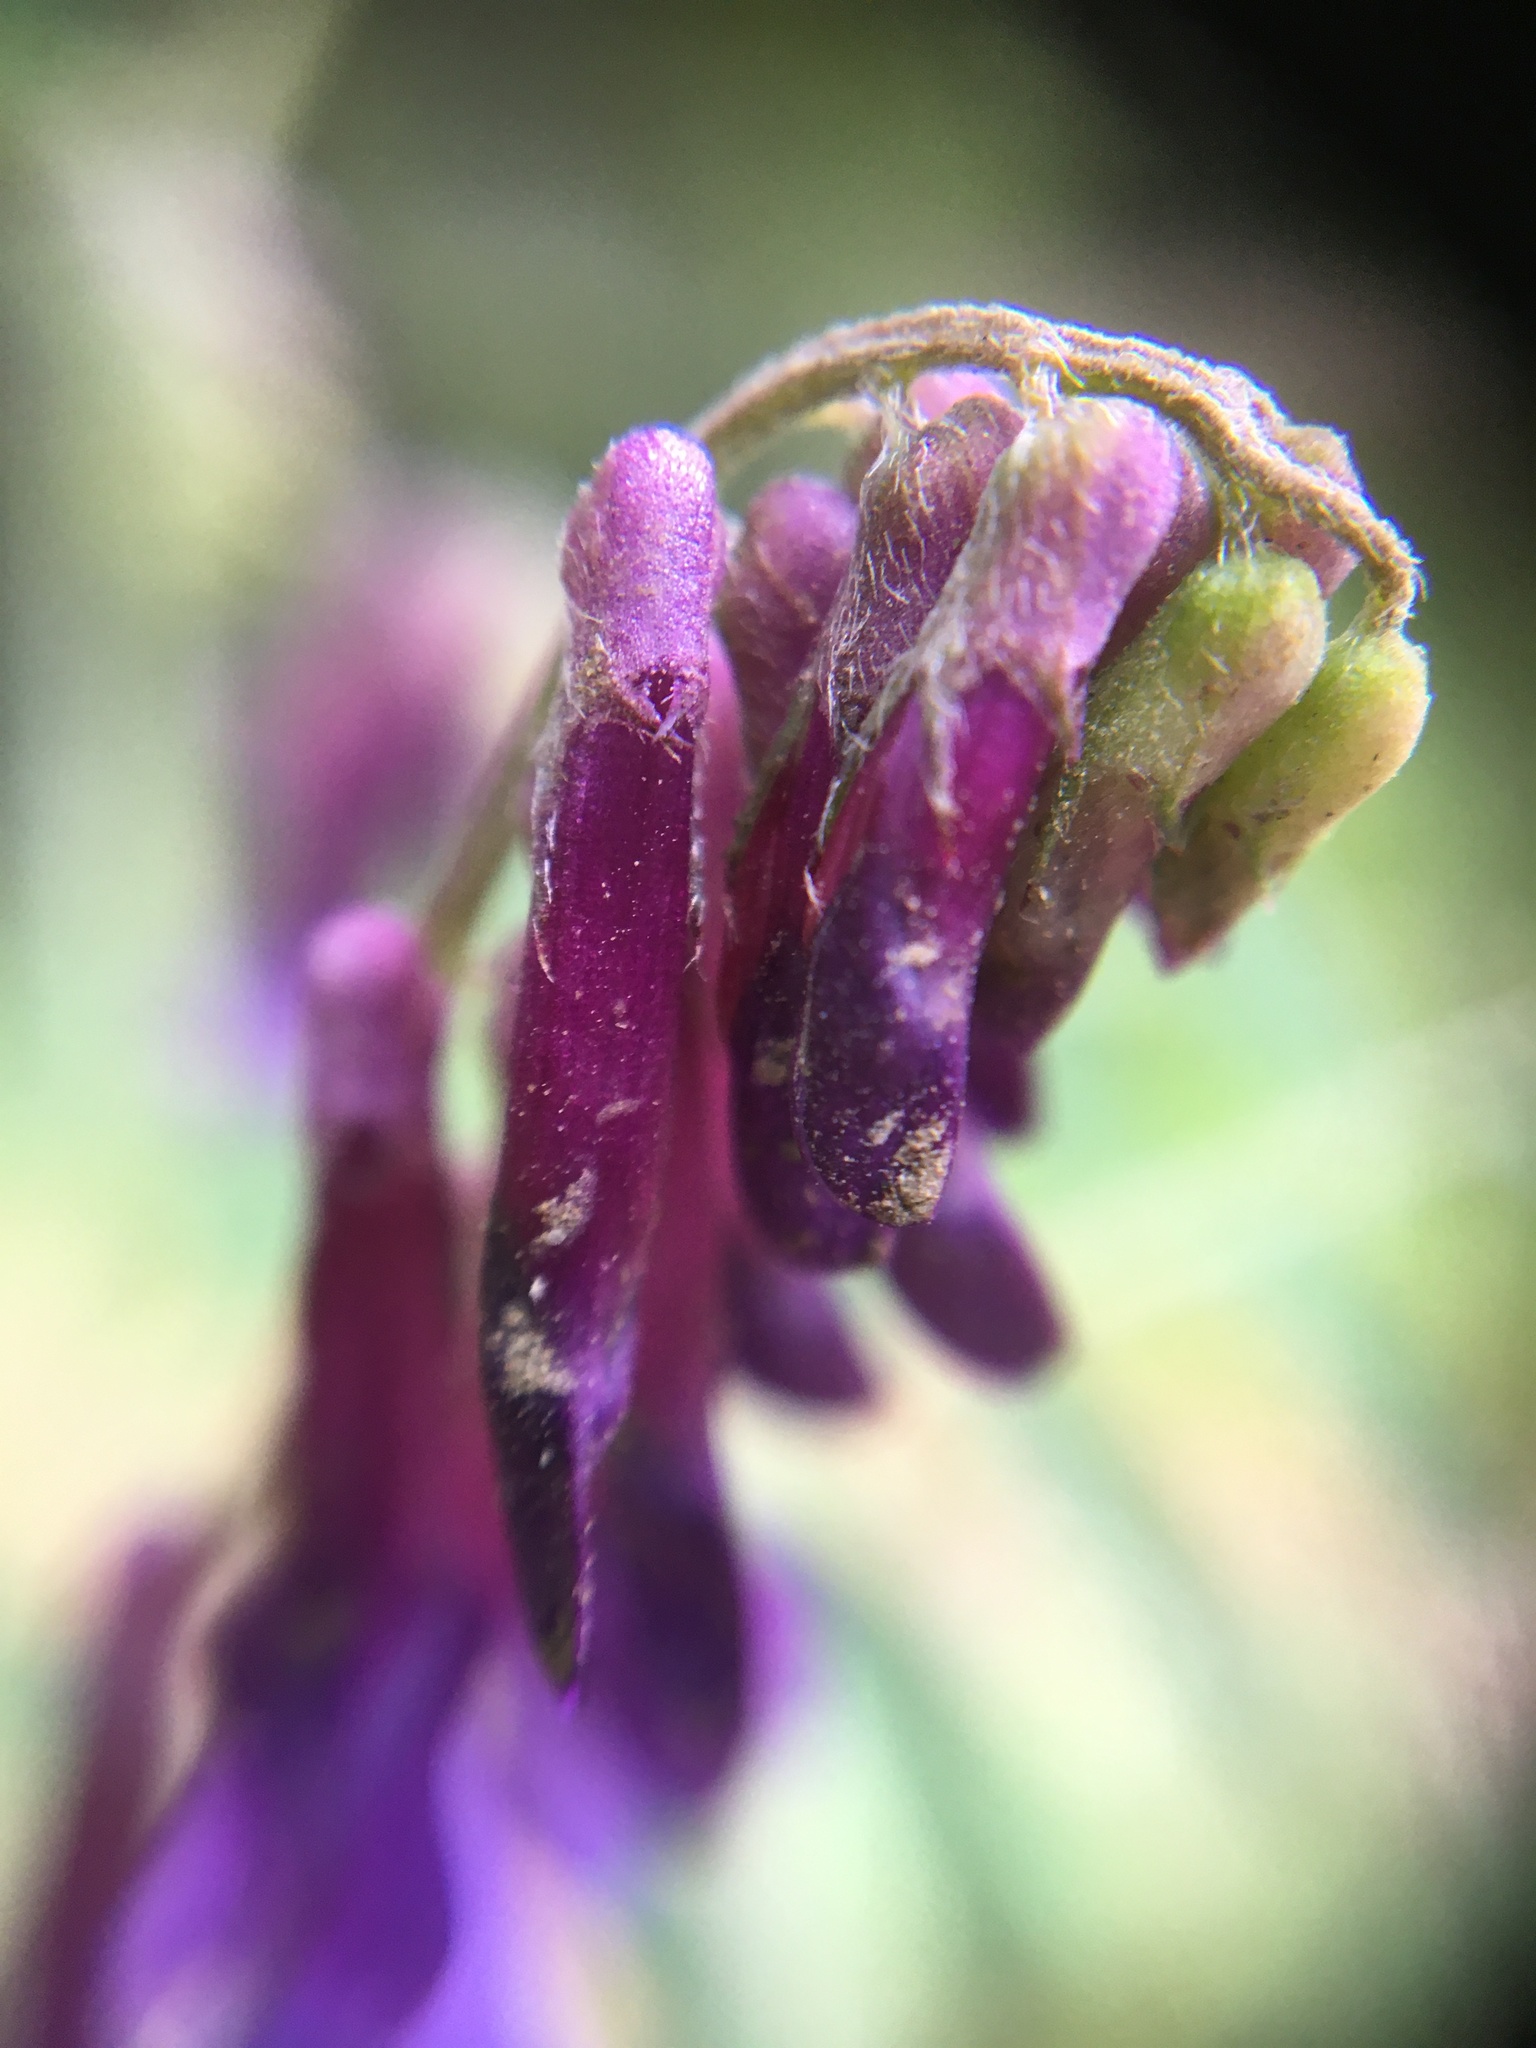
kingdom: Plantae
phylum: Tracheophyta
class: Magnoliopsida
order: Fabales
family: Fabaceae
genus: Vicia
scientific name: Vicia villosa
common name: Fodder vetch
